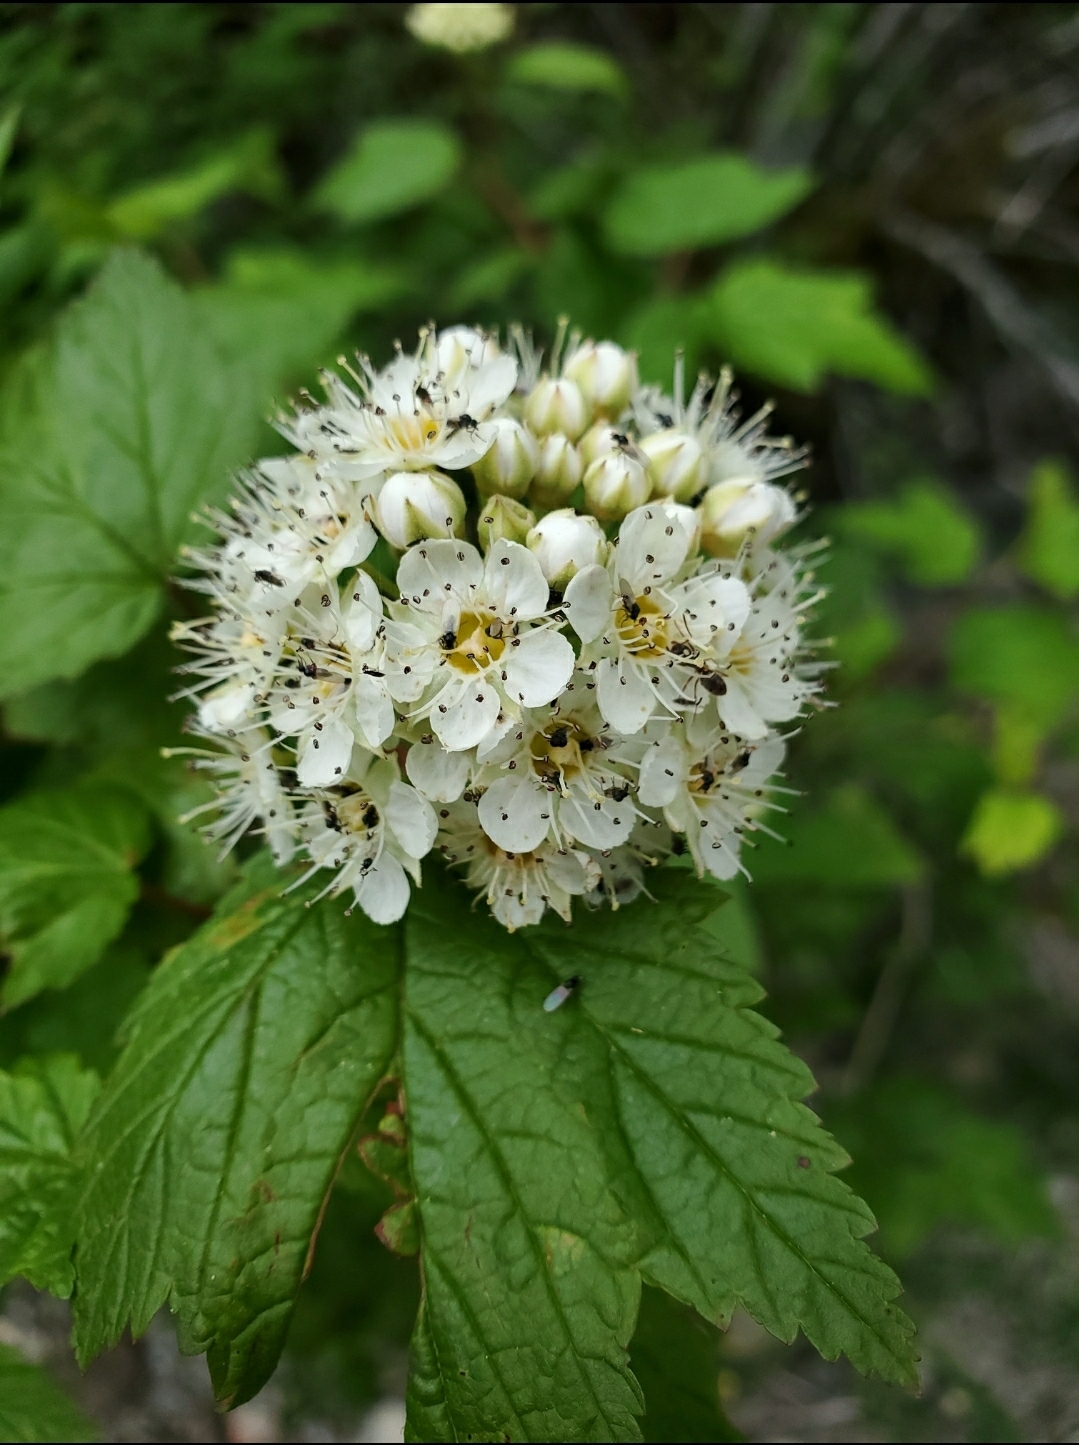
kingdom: Plantae
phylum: Tracheophyta
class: Magnoliopsida
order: Rosales
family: Rosaceae
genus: Physocarpus
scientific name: Physocarpus capitatus
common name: Pacific ninebark
